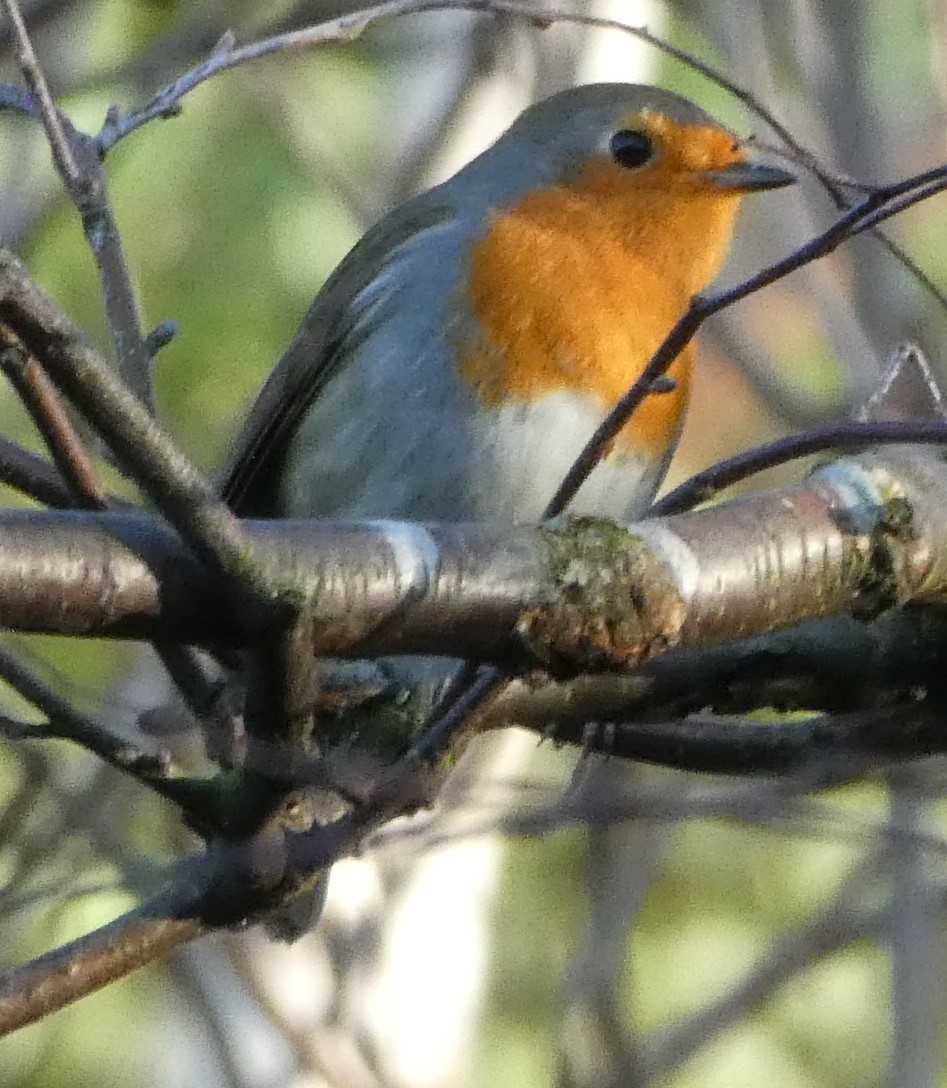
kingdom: Animalia
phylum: Chordata
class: Aves
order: Passeriformes
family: Muscicapidae
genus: Erithacus
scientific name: Erithacus rubecula
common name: European robin
